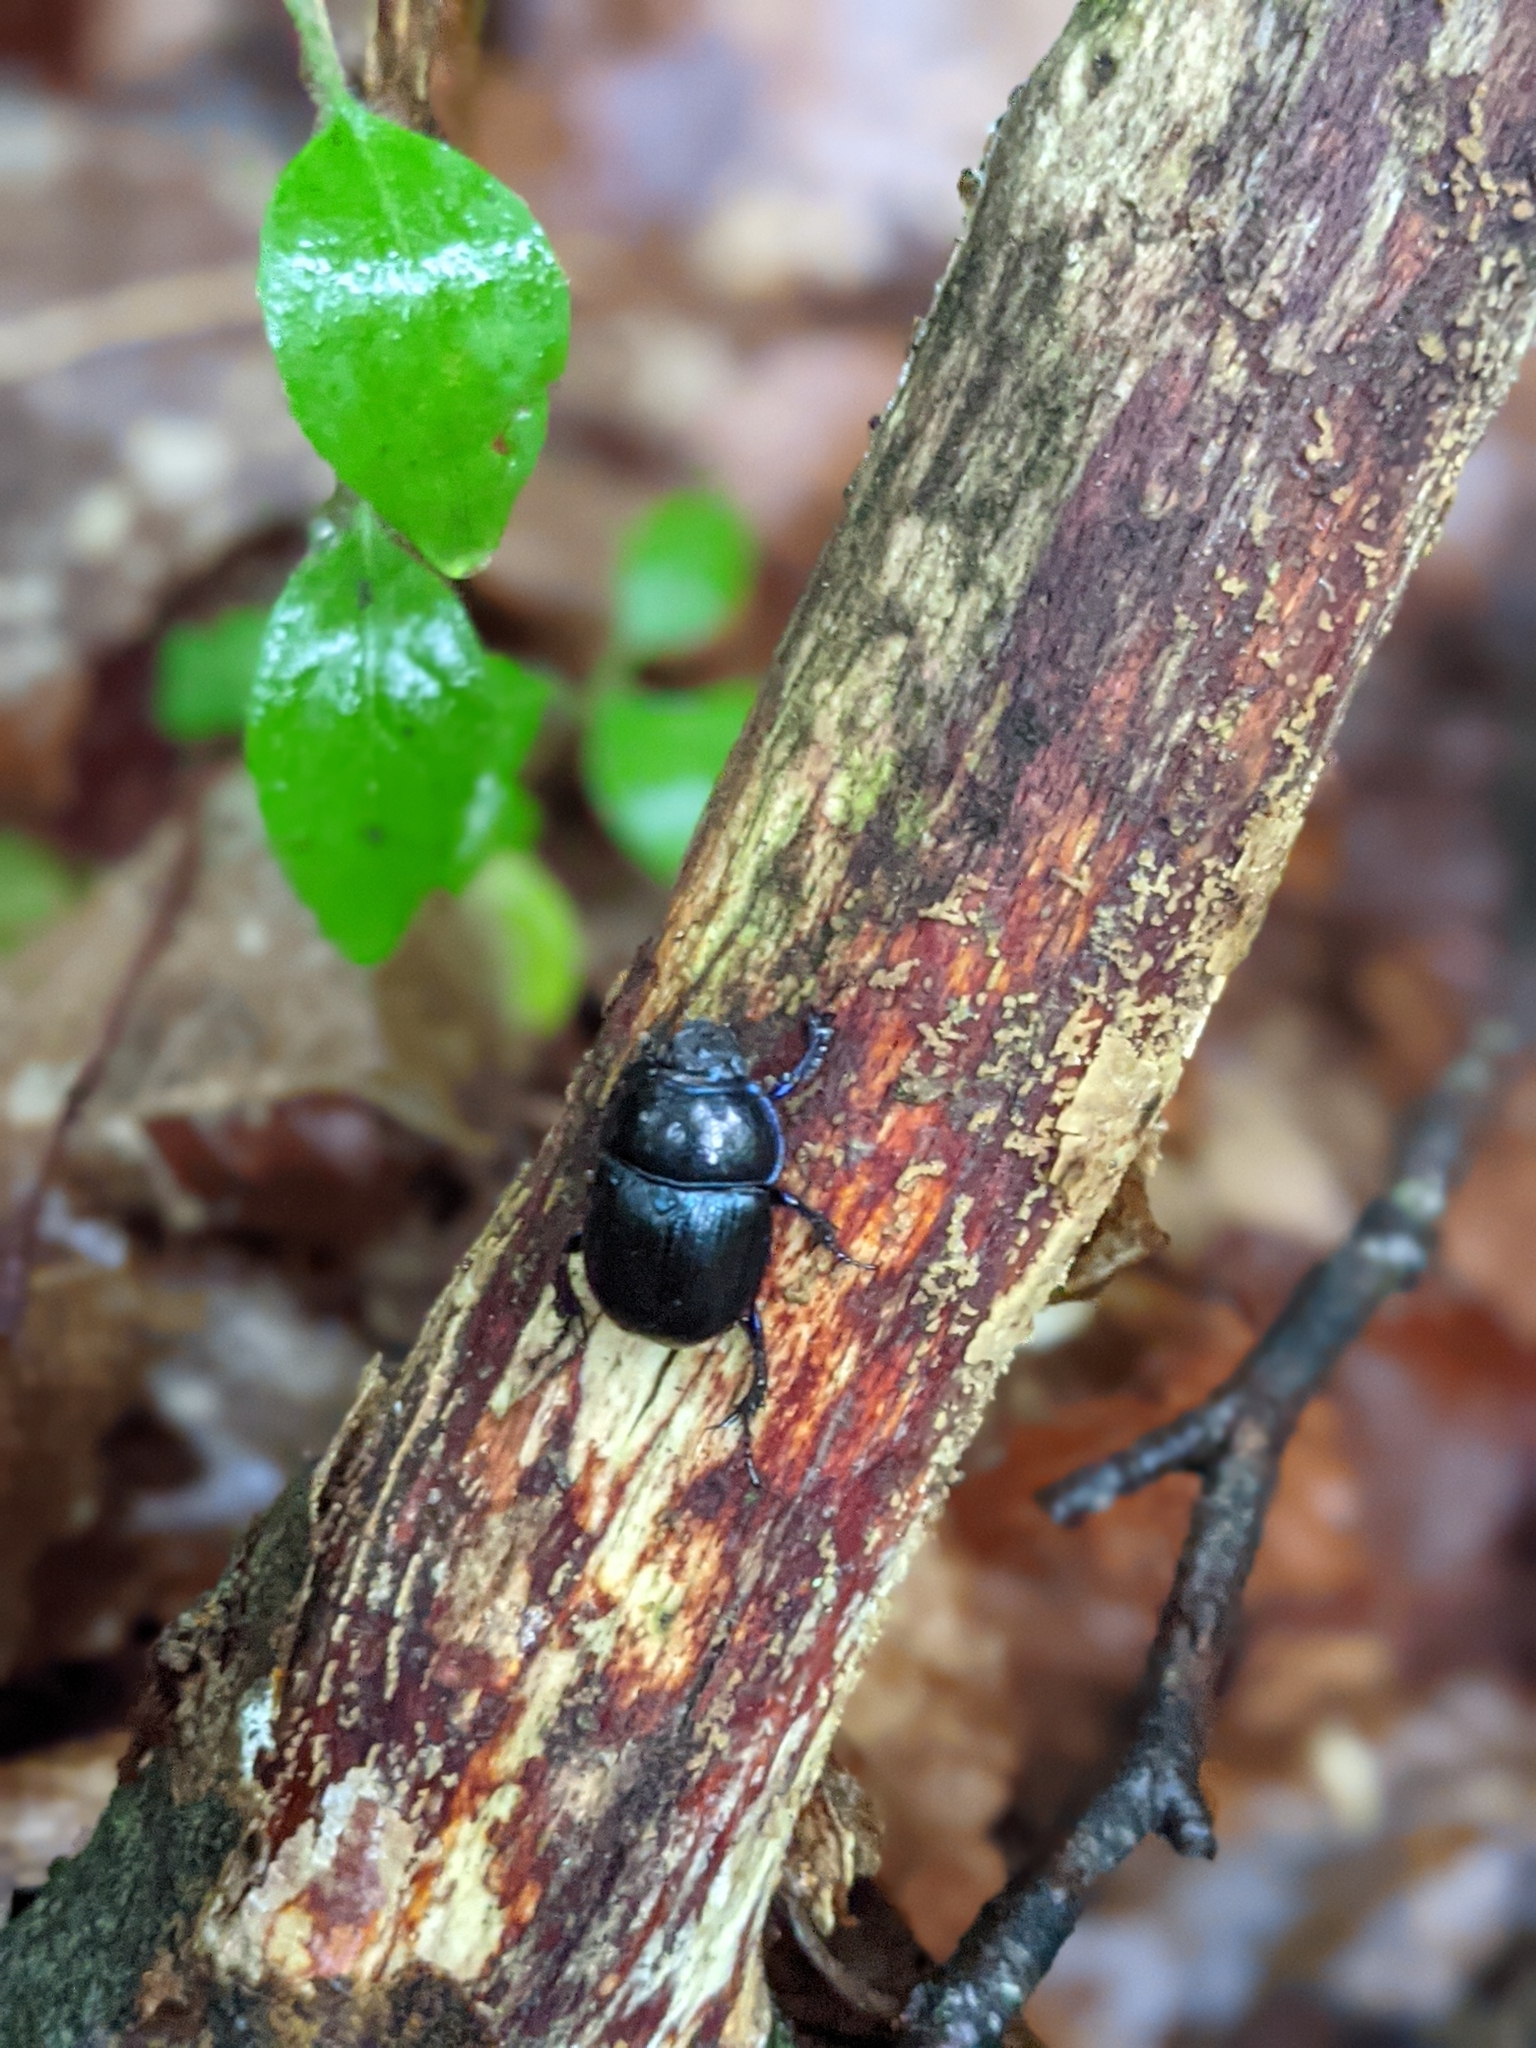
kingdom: Animalia
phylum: Arthropoda
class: Insecta
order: Coleoptera
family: Geotrupidae
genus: Anoplotrupes
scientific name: Anoplotrupes stercorosus
